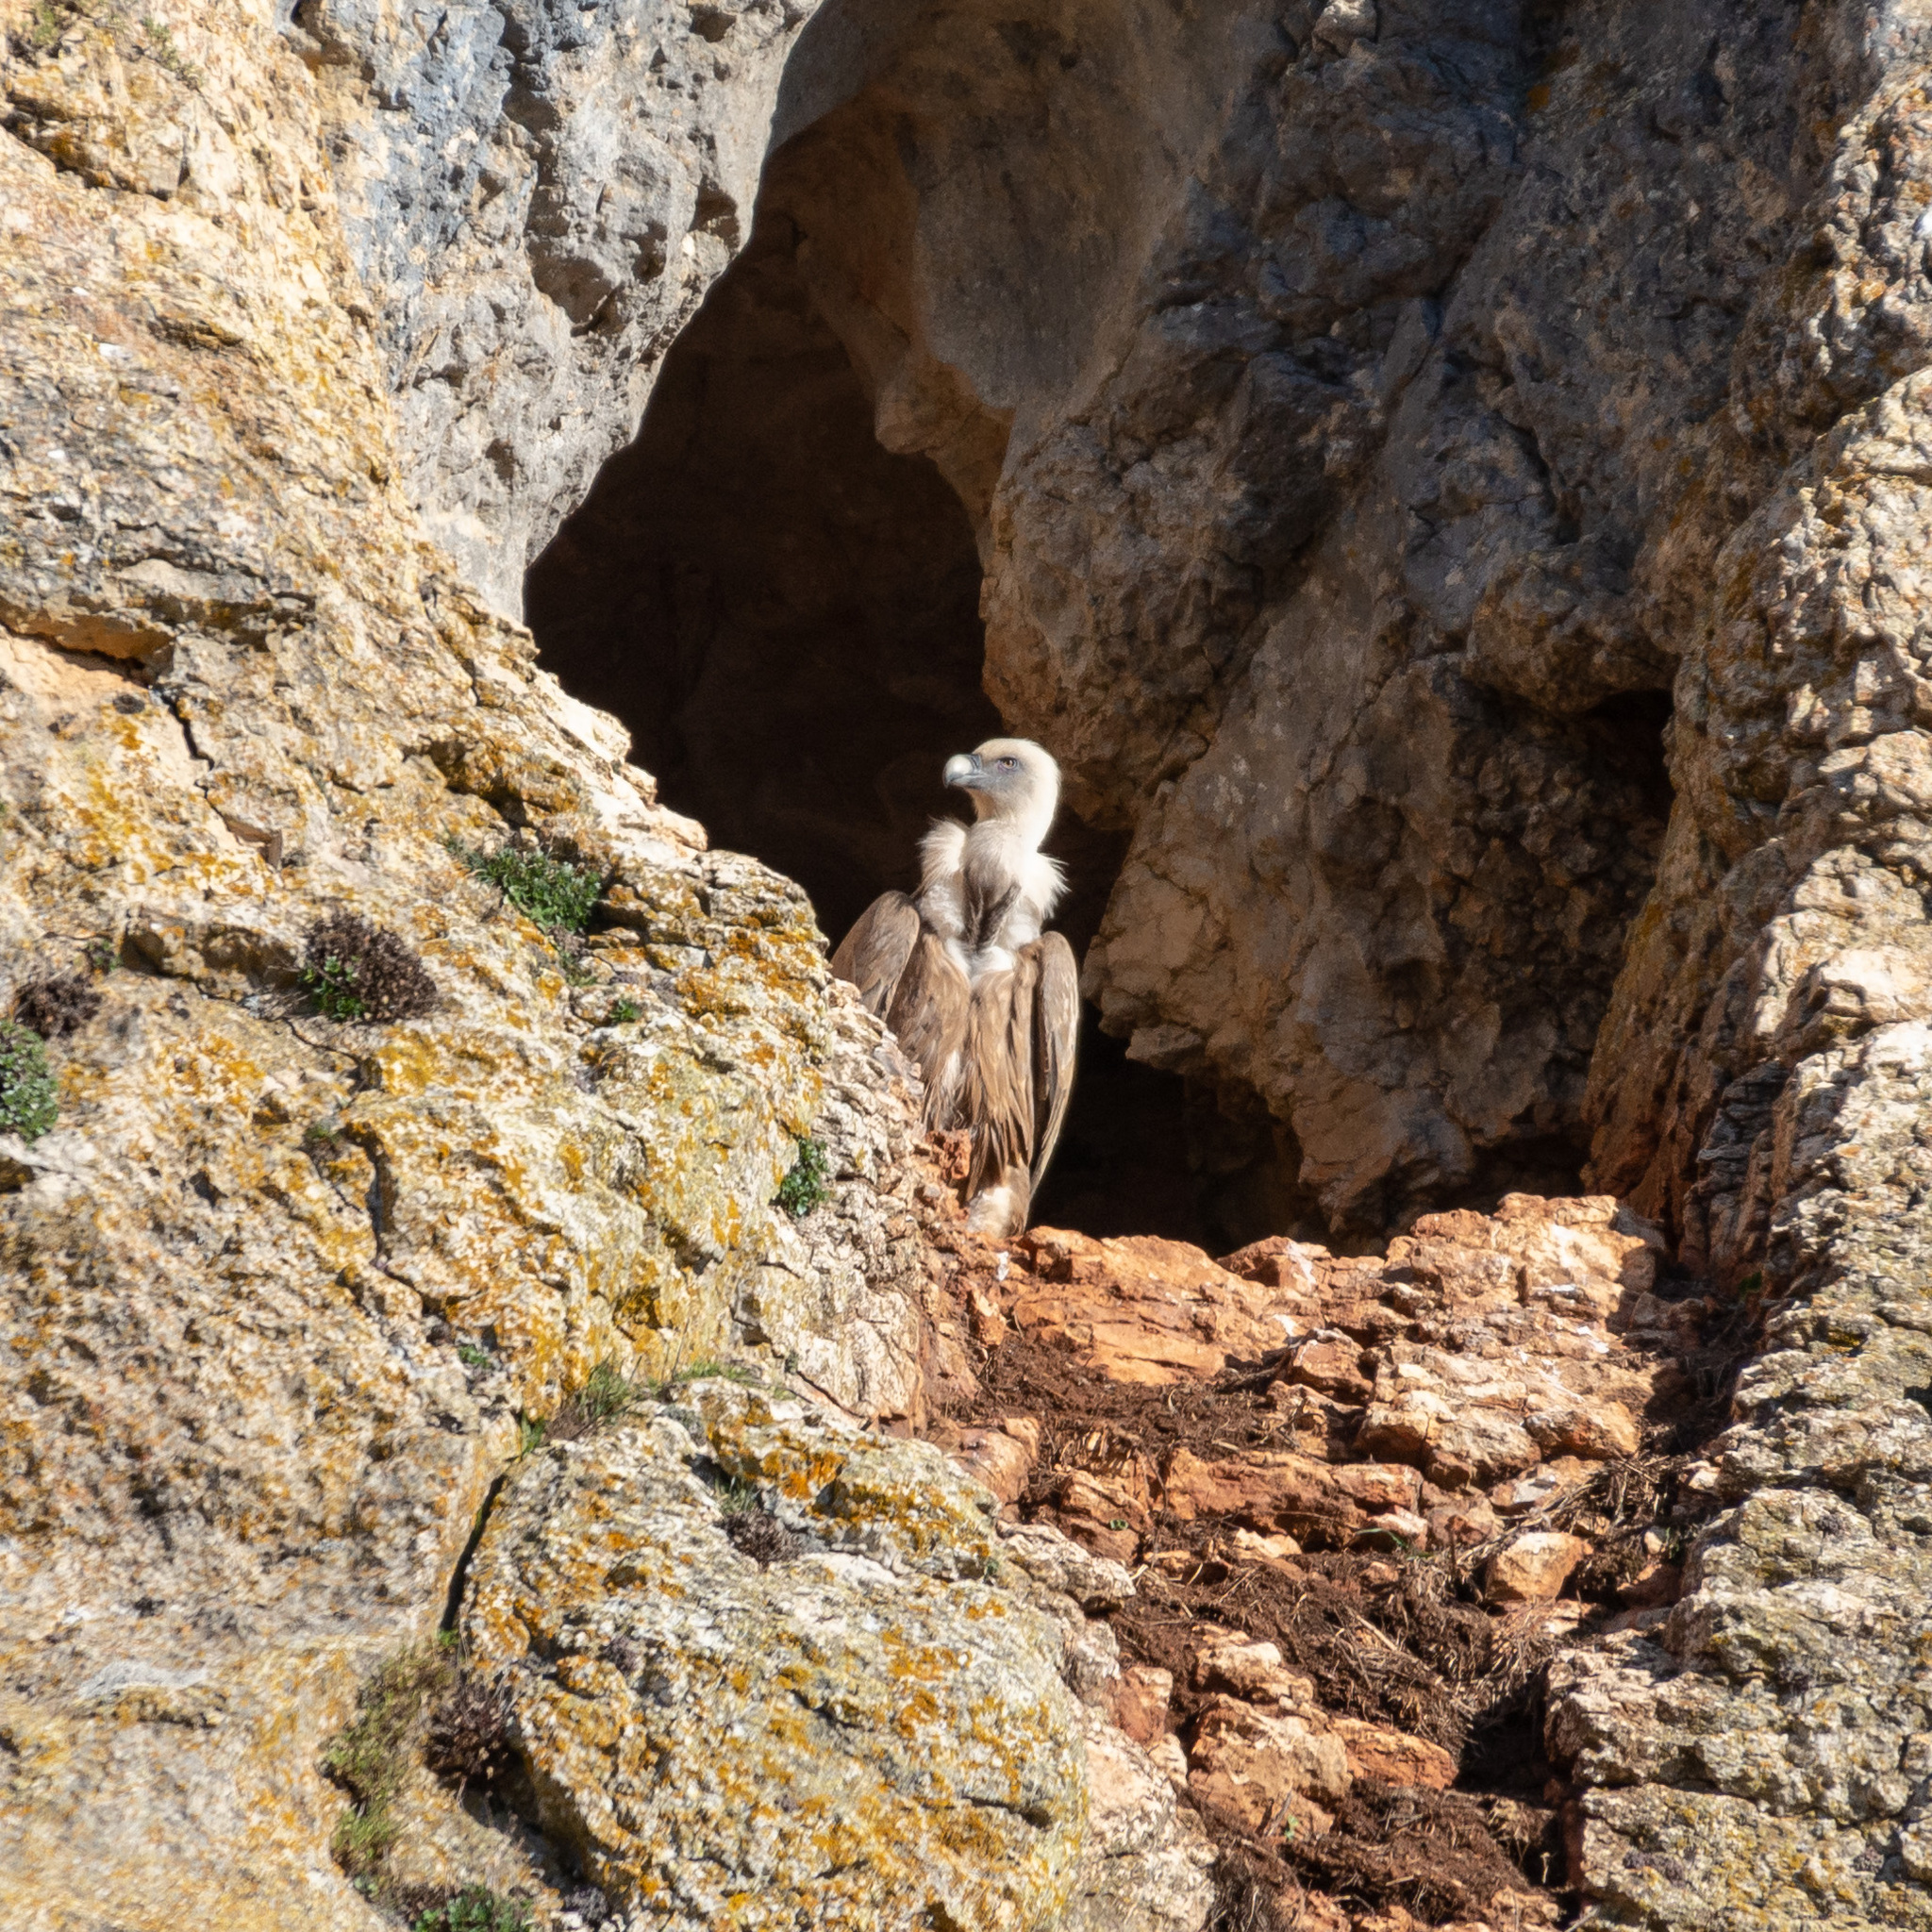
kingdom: Animalia
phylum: Chordata
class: Aves
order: Accipitriformes
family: Accipitridae
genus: Gyps
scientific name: Gyps fulvus
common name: Griffon vulture
